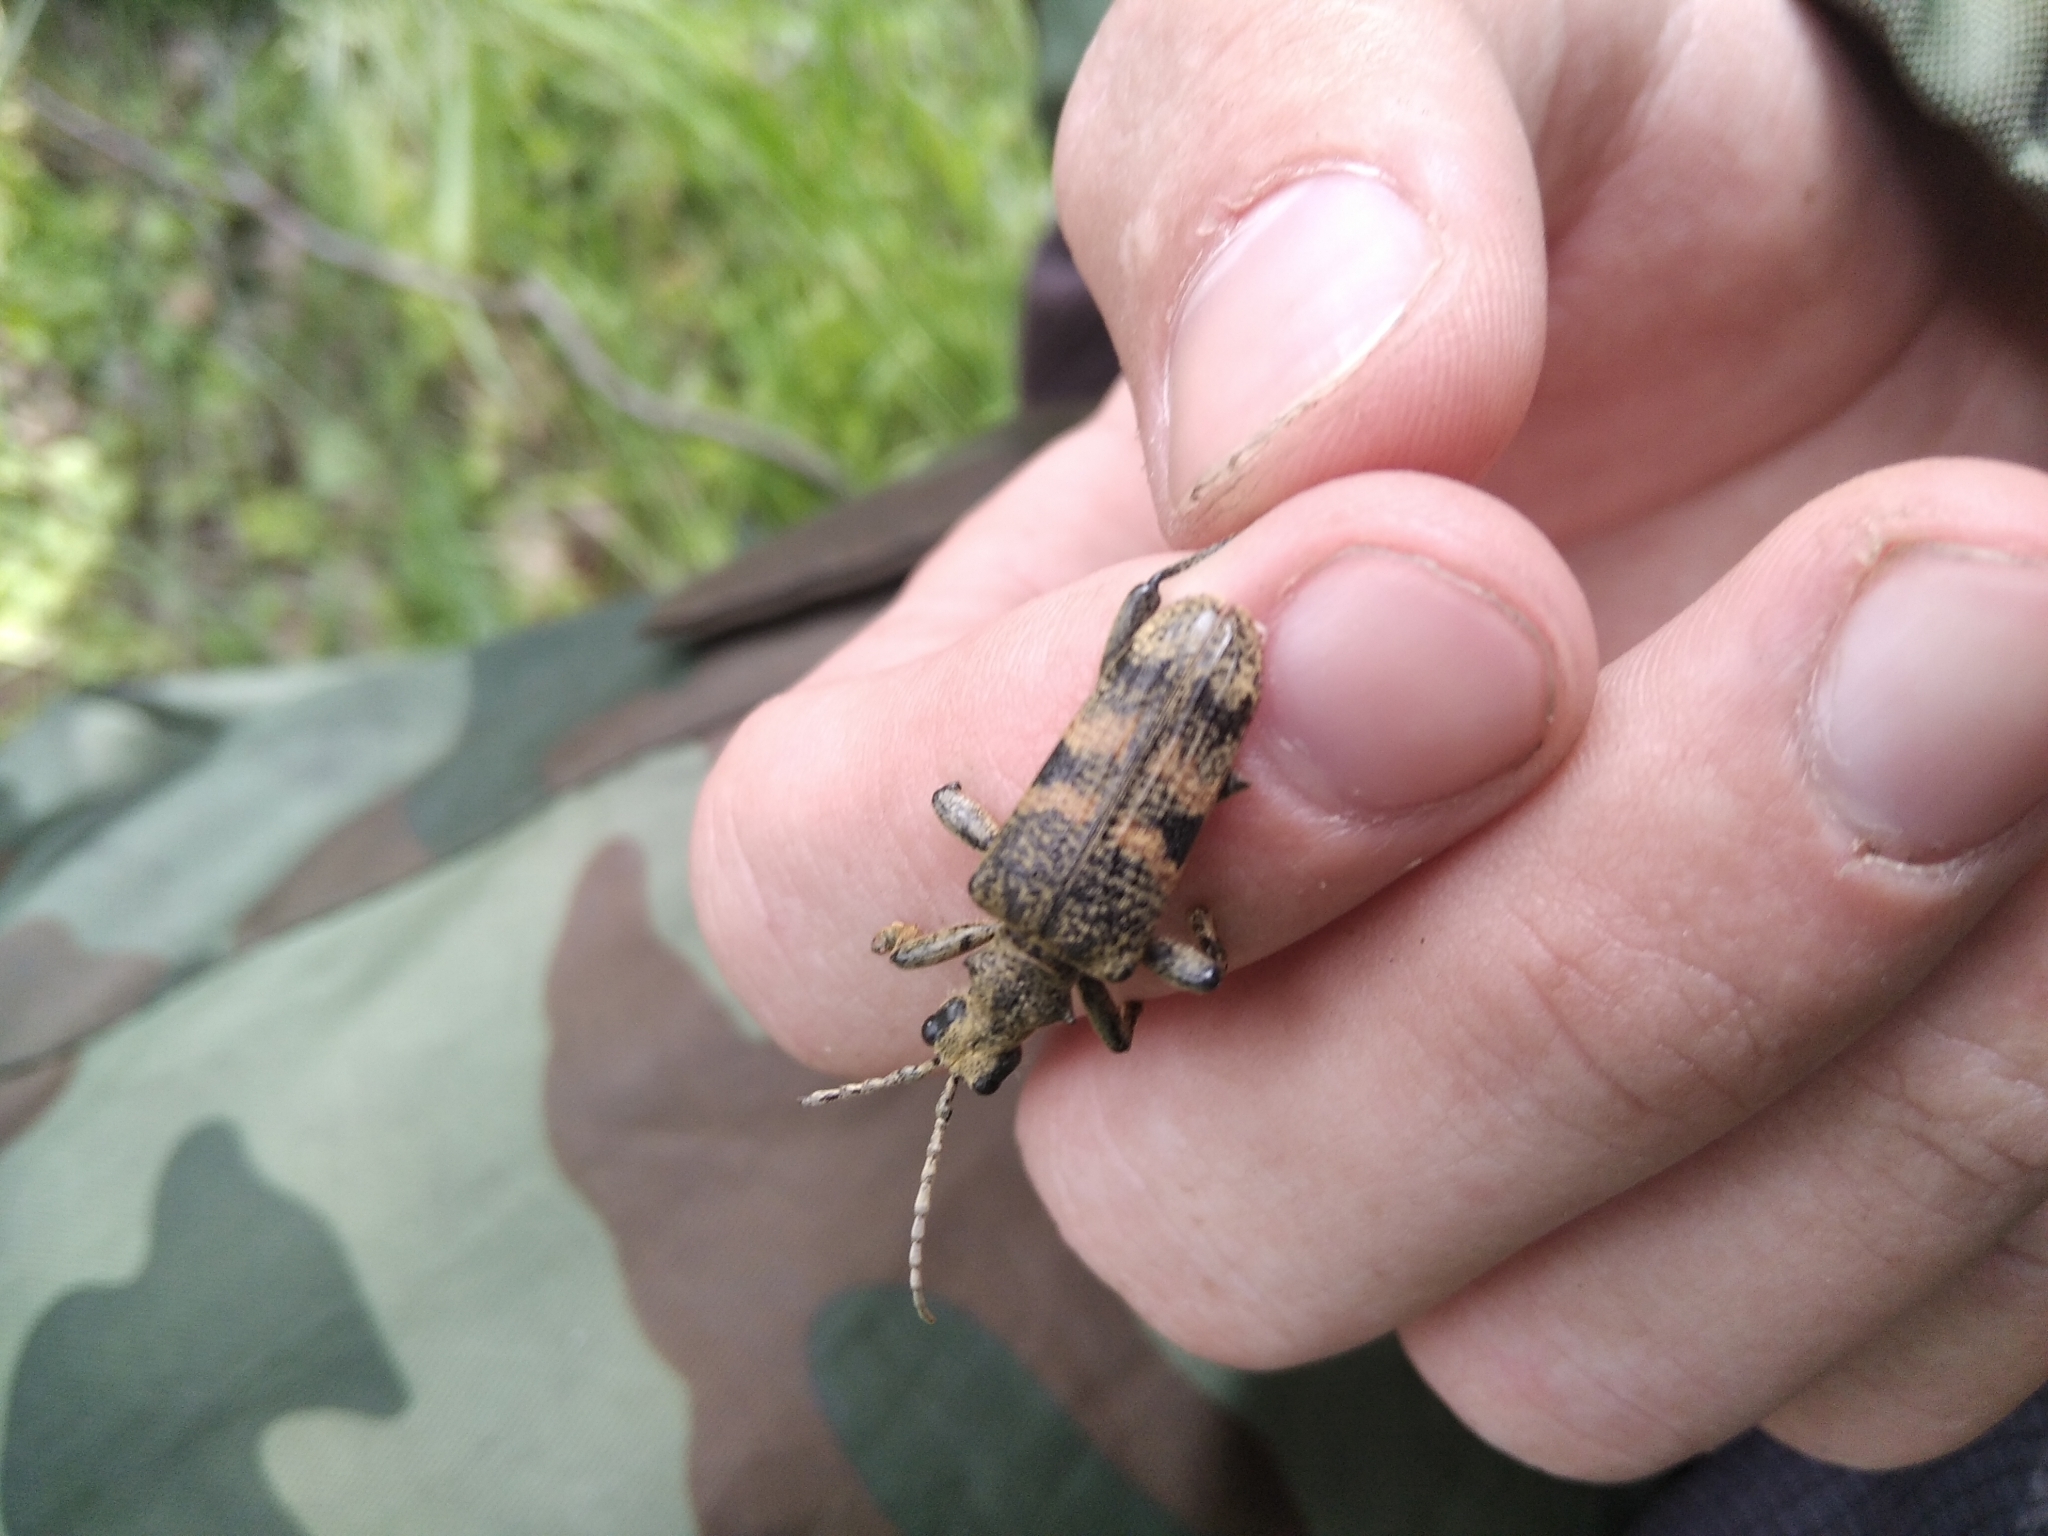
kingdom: Animalia
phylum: Arthropoda
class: Insecta
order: Coleoptera
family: Cerambycidae
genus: Rhagium
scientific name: Rhagium mordax
